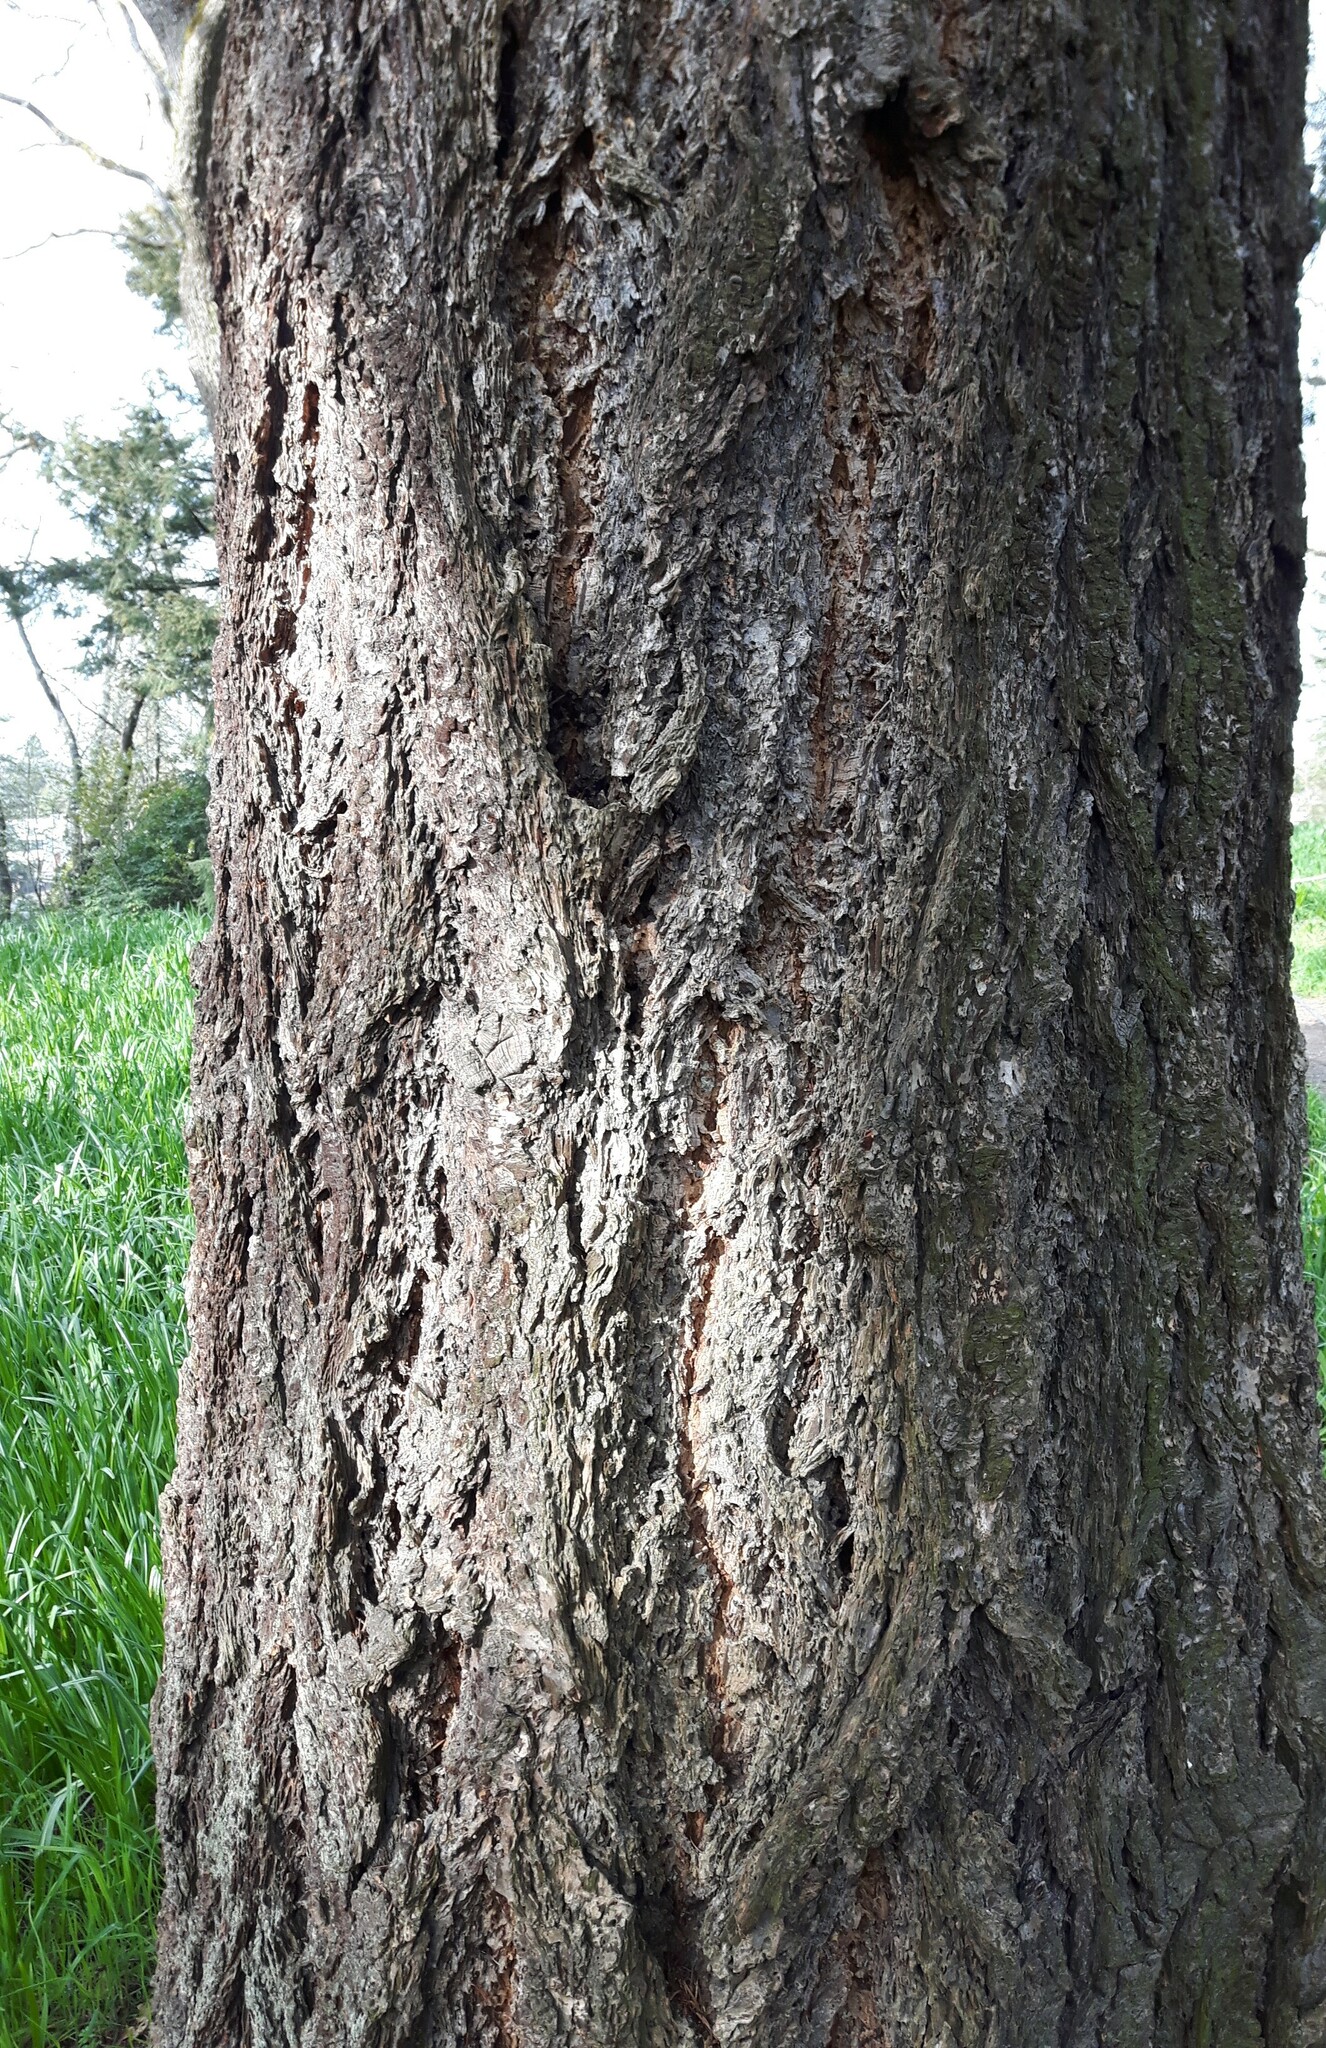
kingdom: Plantae
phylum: Tracheophyta
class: Pinopsida
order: Pinales
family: Pinaceae
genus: Pseudotsuga
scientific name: Pseudotsuga menziesii
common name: Douglas fir
